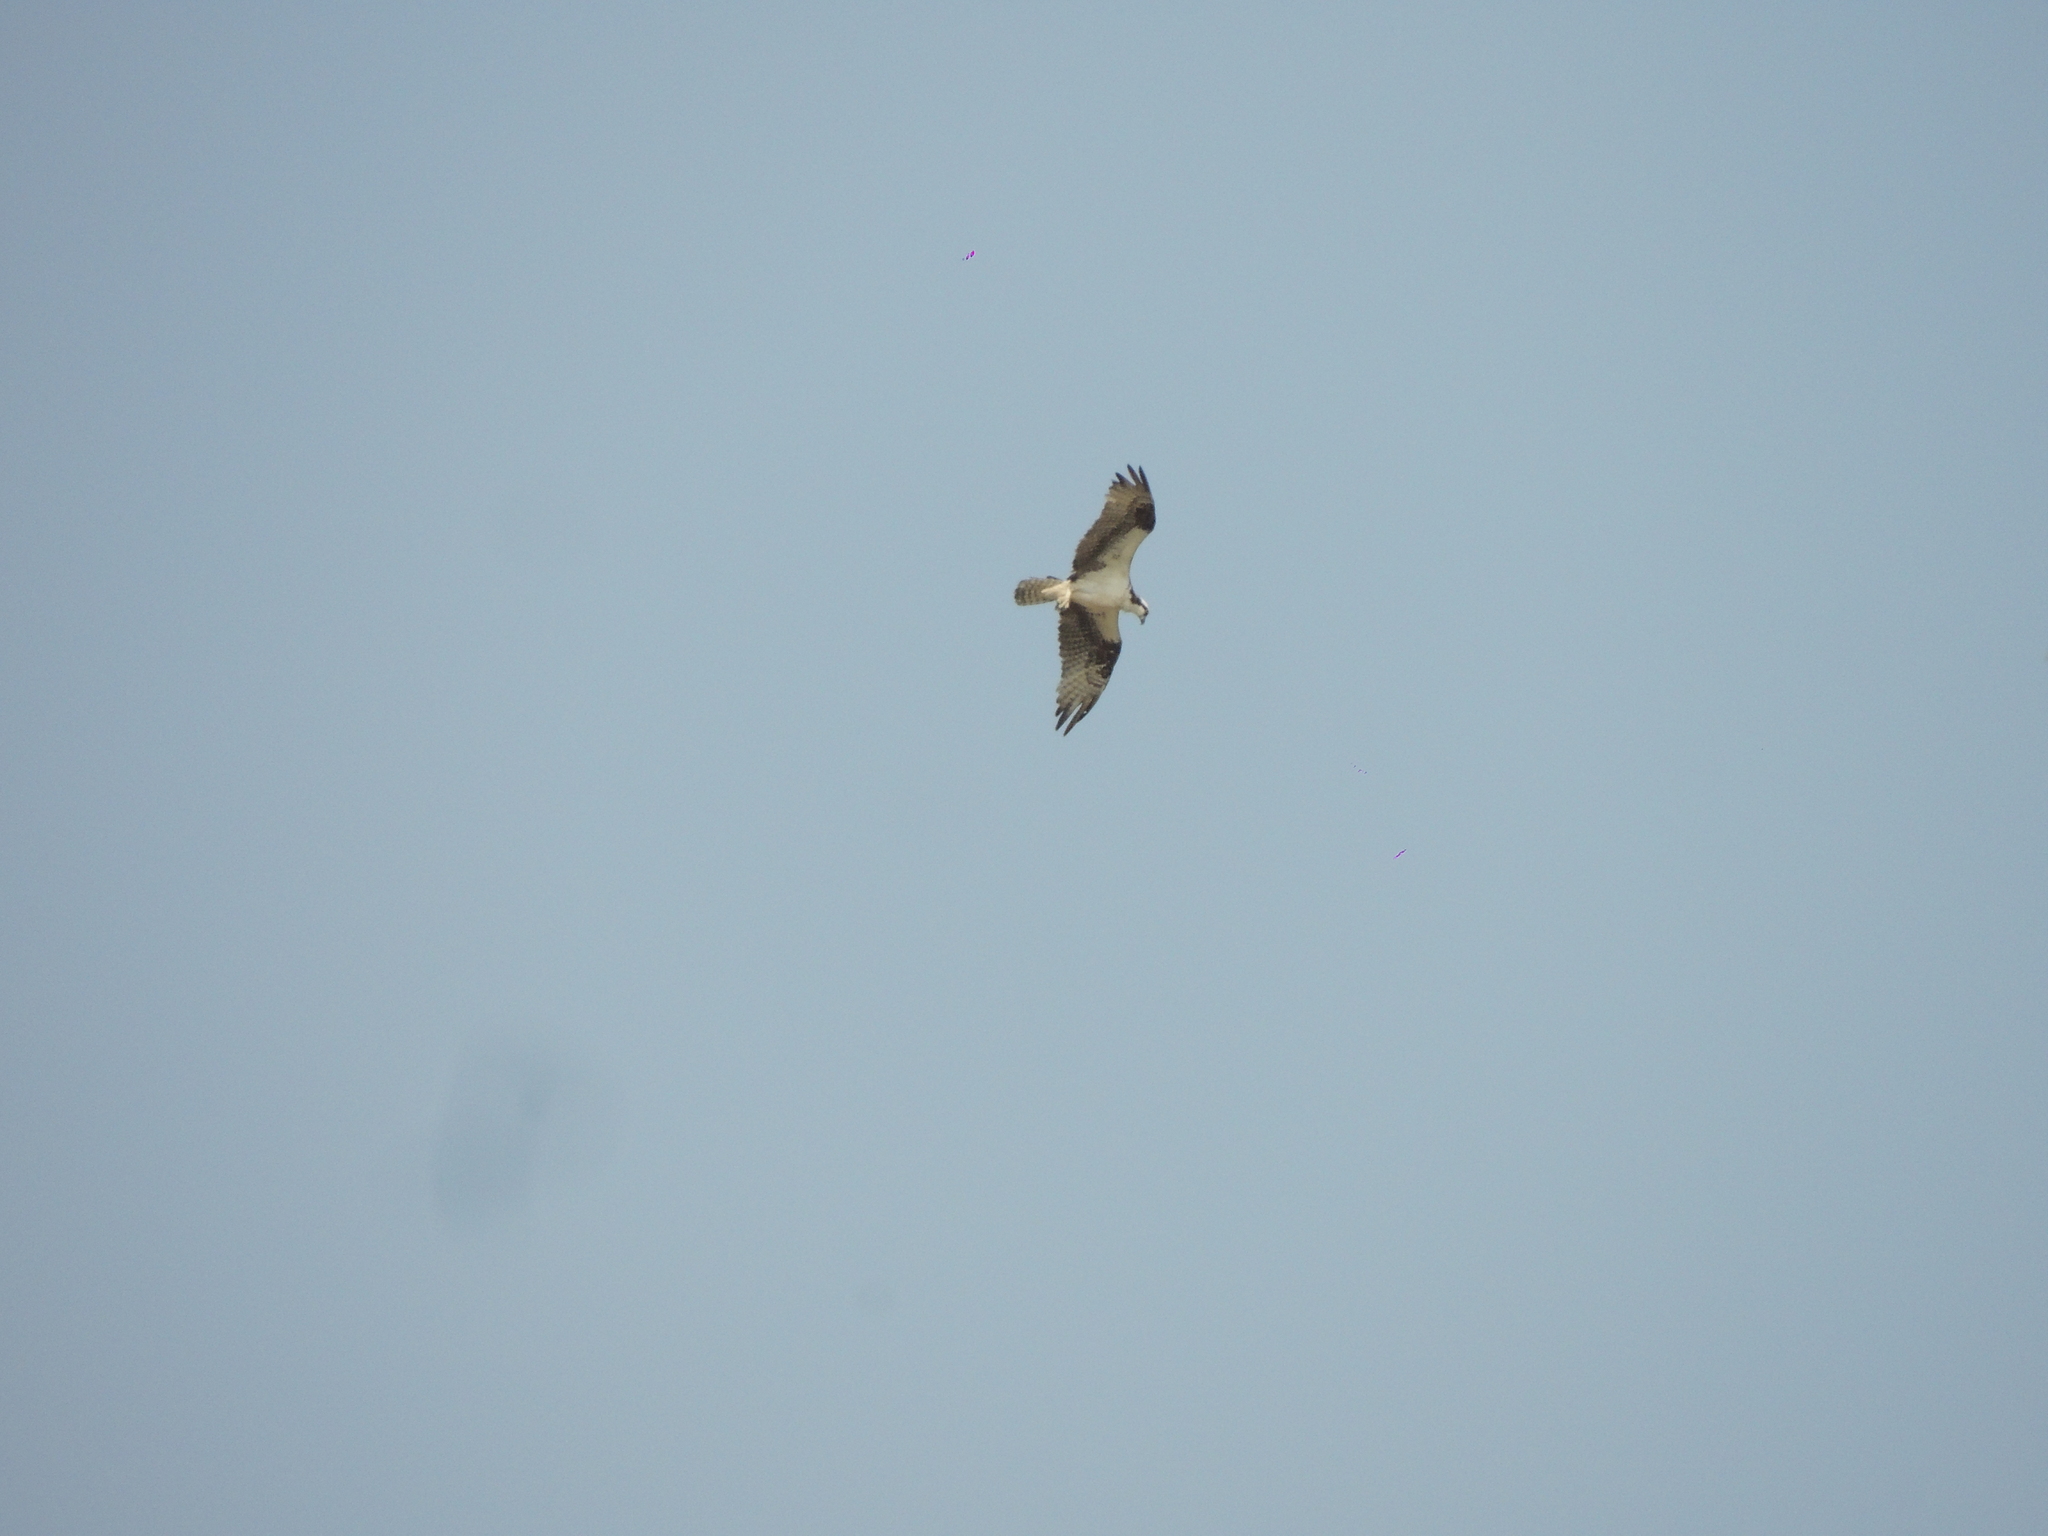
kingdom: Animalia
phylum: Chordata
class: Aves
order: Accipitriformes
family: Pandionidae
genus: Pandion
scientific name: Pandion haliaetus
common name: Osprey
